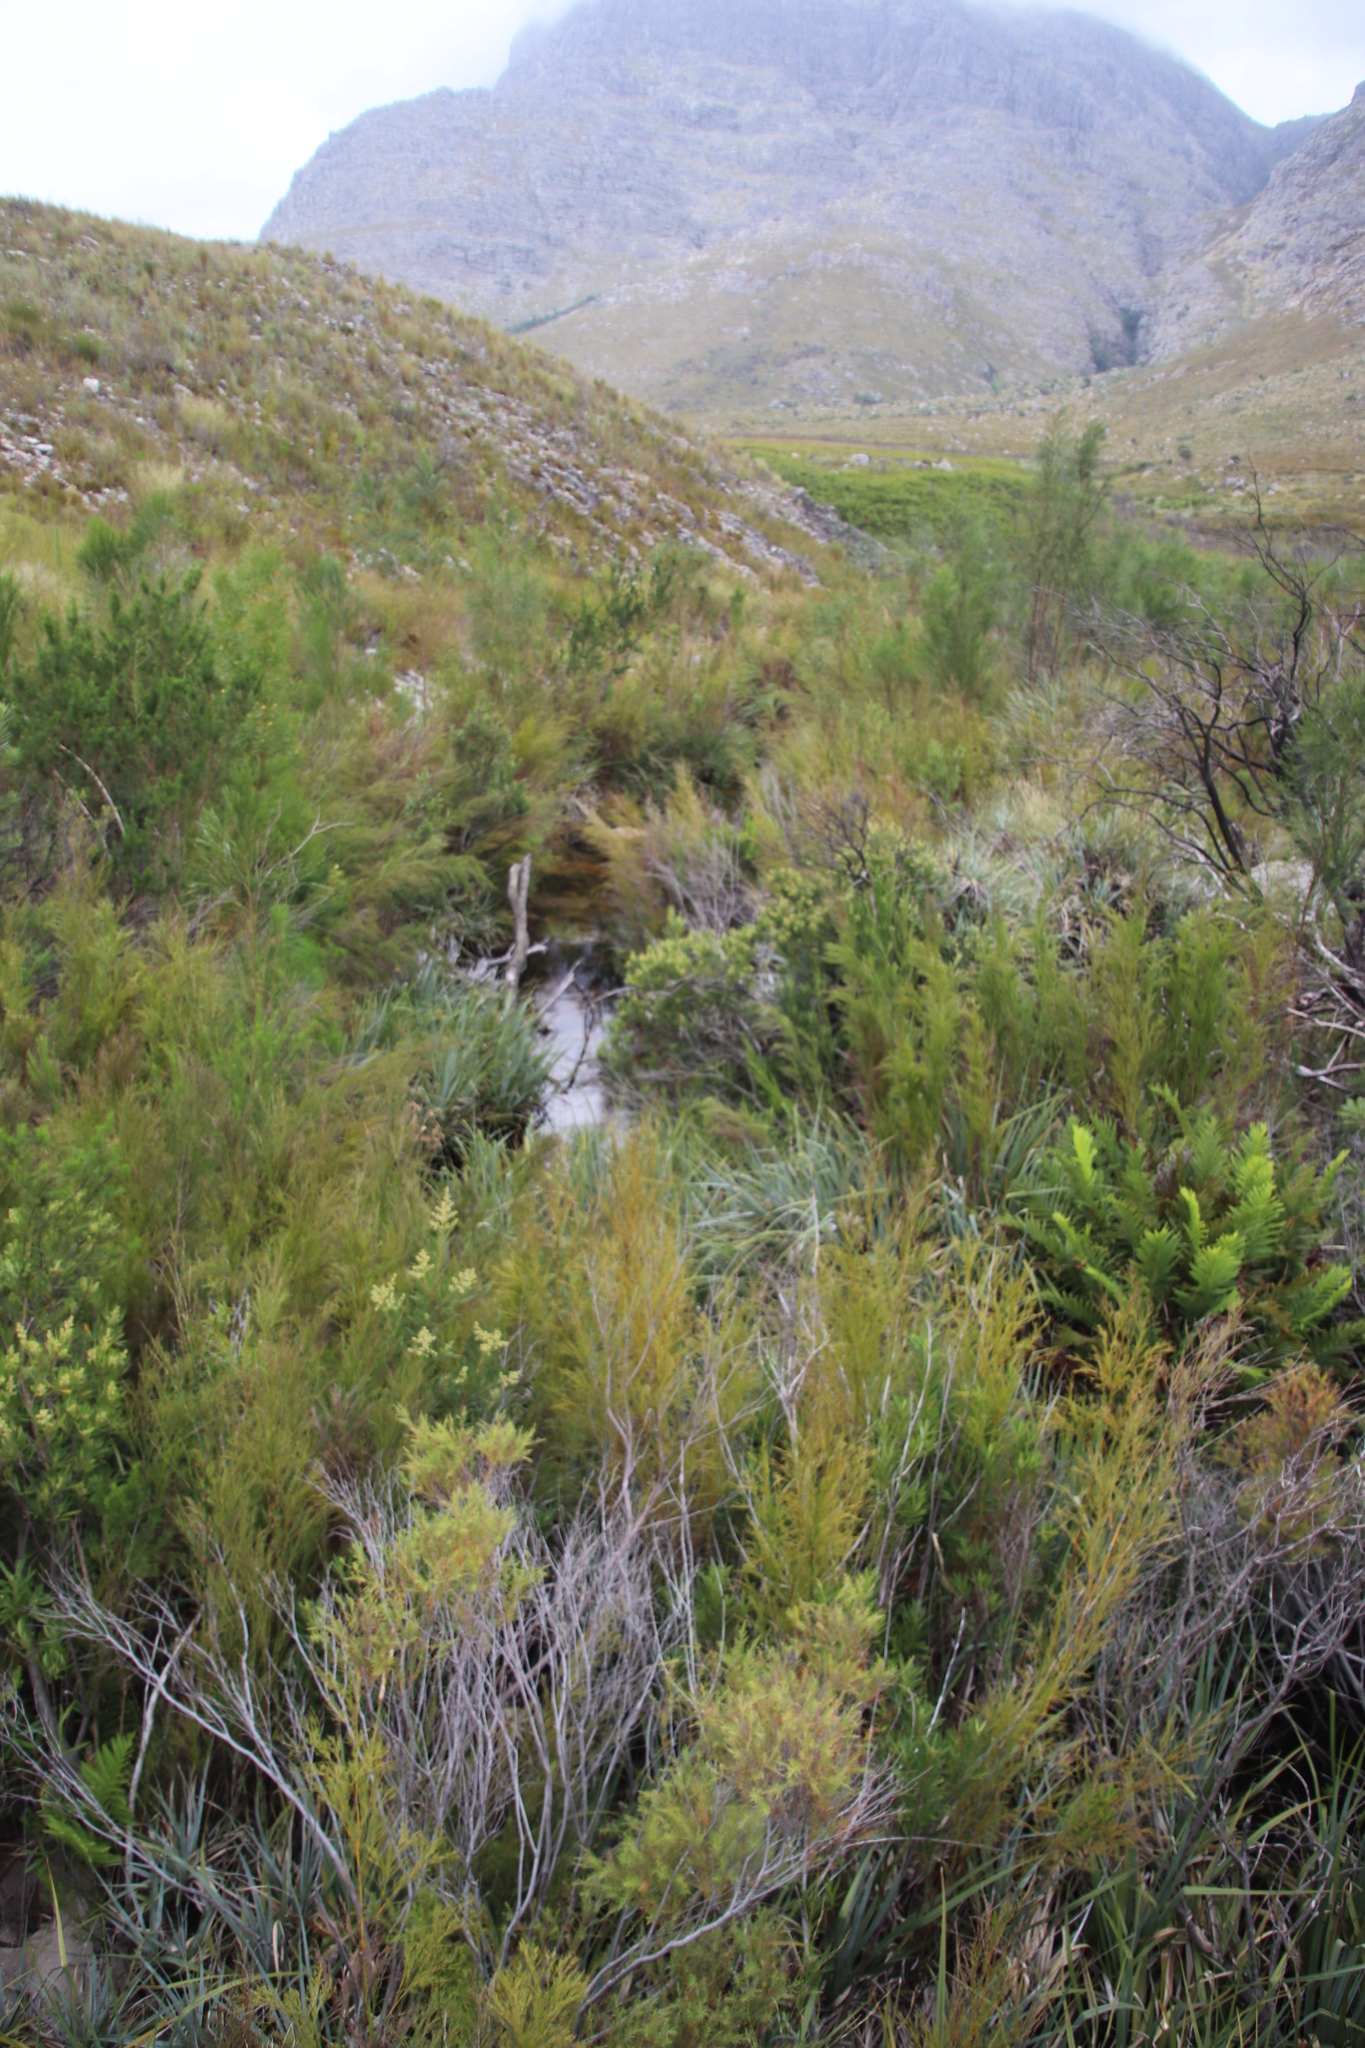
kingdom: Plantae
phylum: Tracheophyta
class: Magnoliopsida
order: Bruniales
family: Bruniaceae
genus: Brunia
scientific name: Brunia africana
